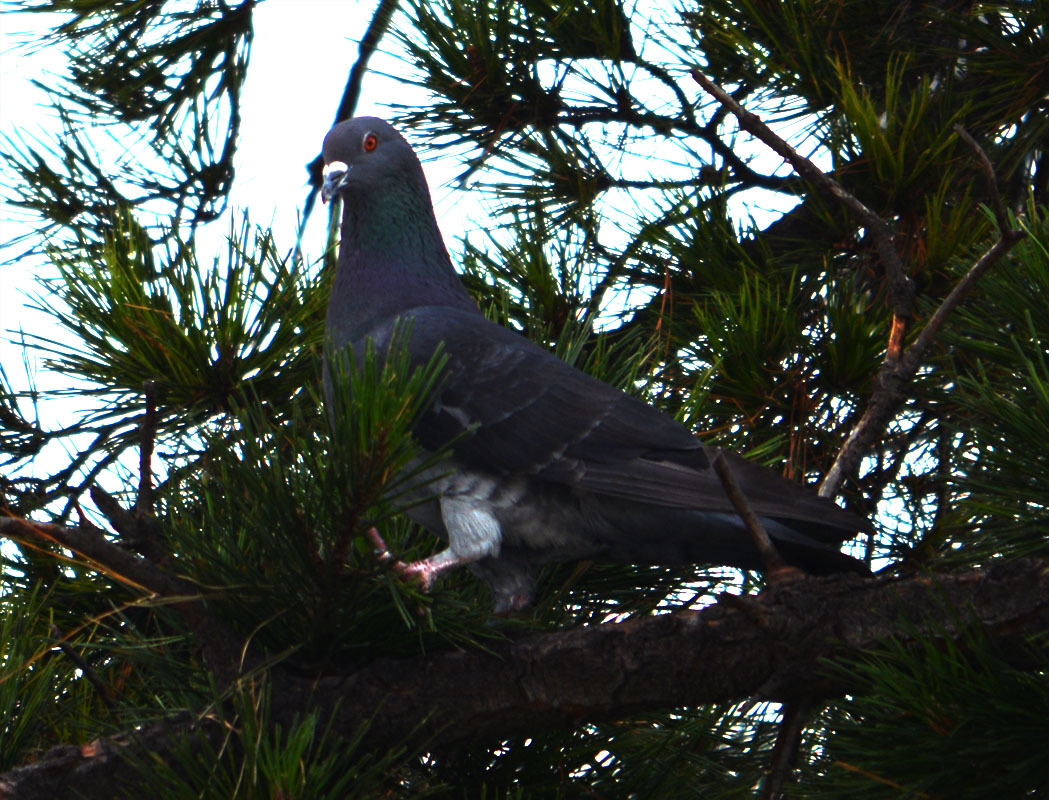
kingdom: Animalia
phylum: Chordata
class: Aves
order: Columbiformes
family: Columbidae
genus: Columba
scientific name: Columba livia
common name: Rock pigeon
